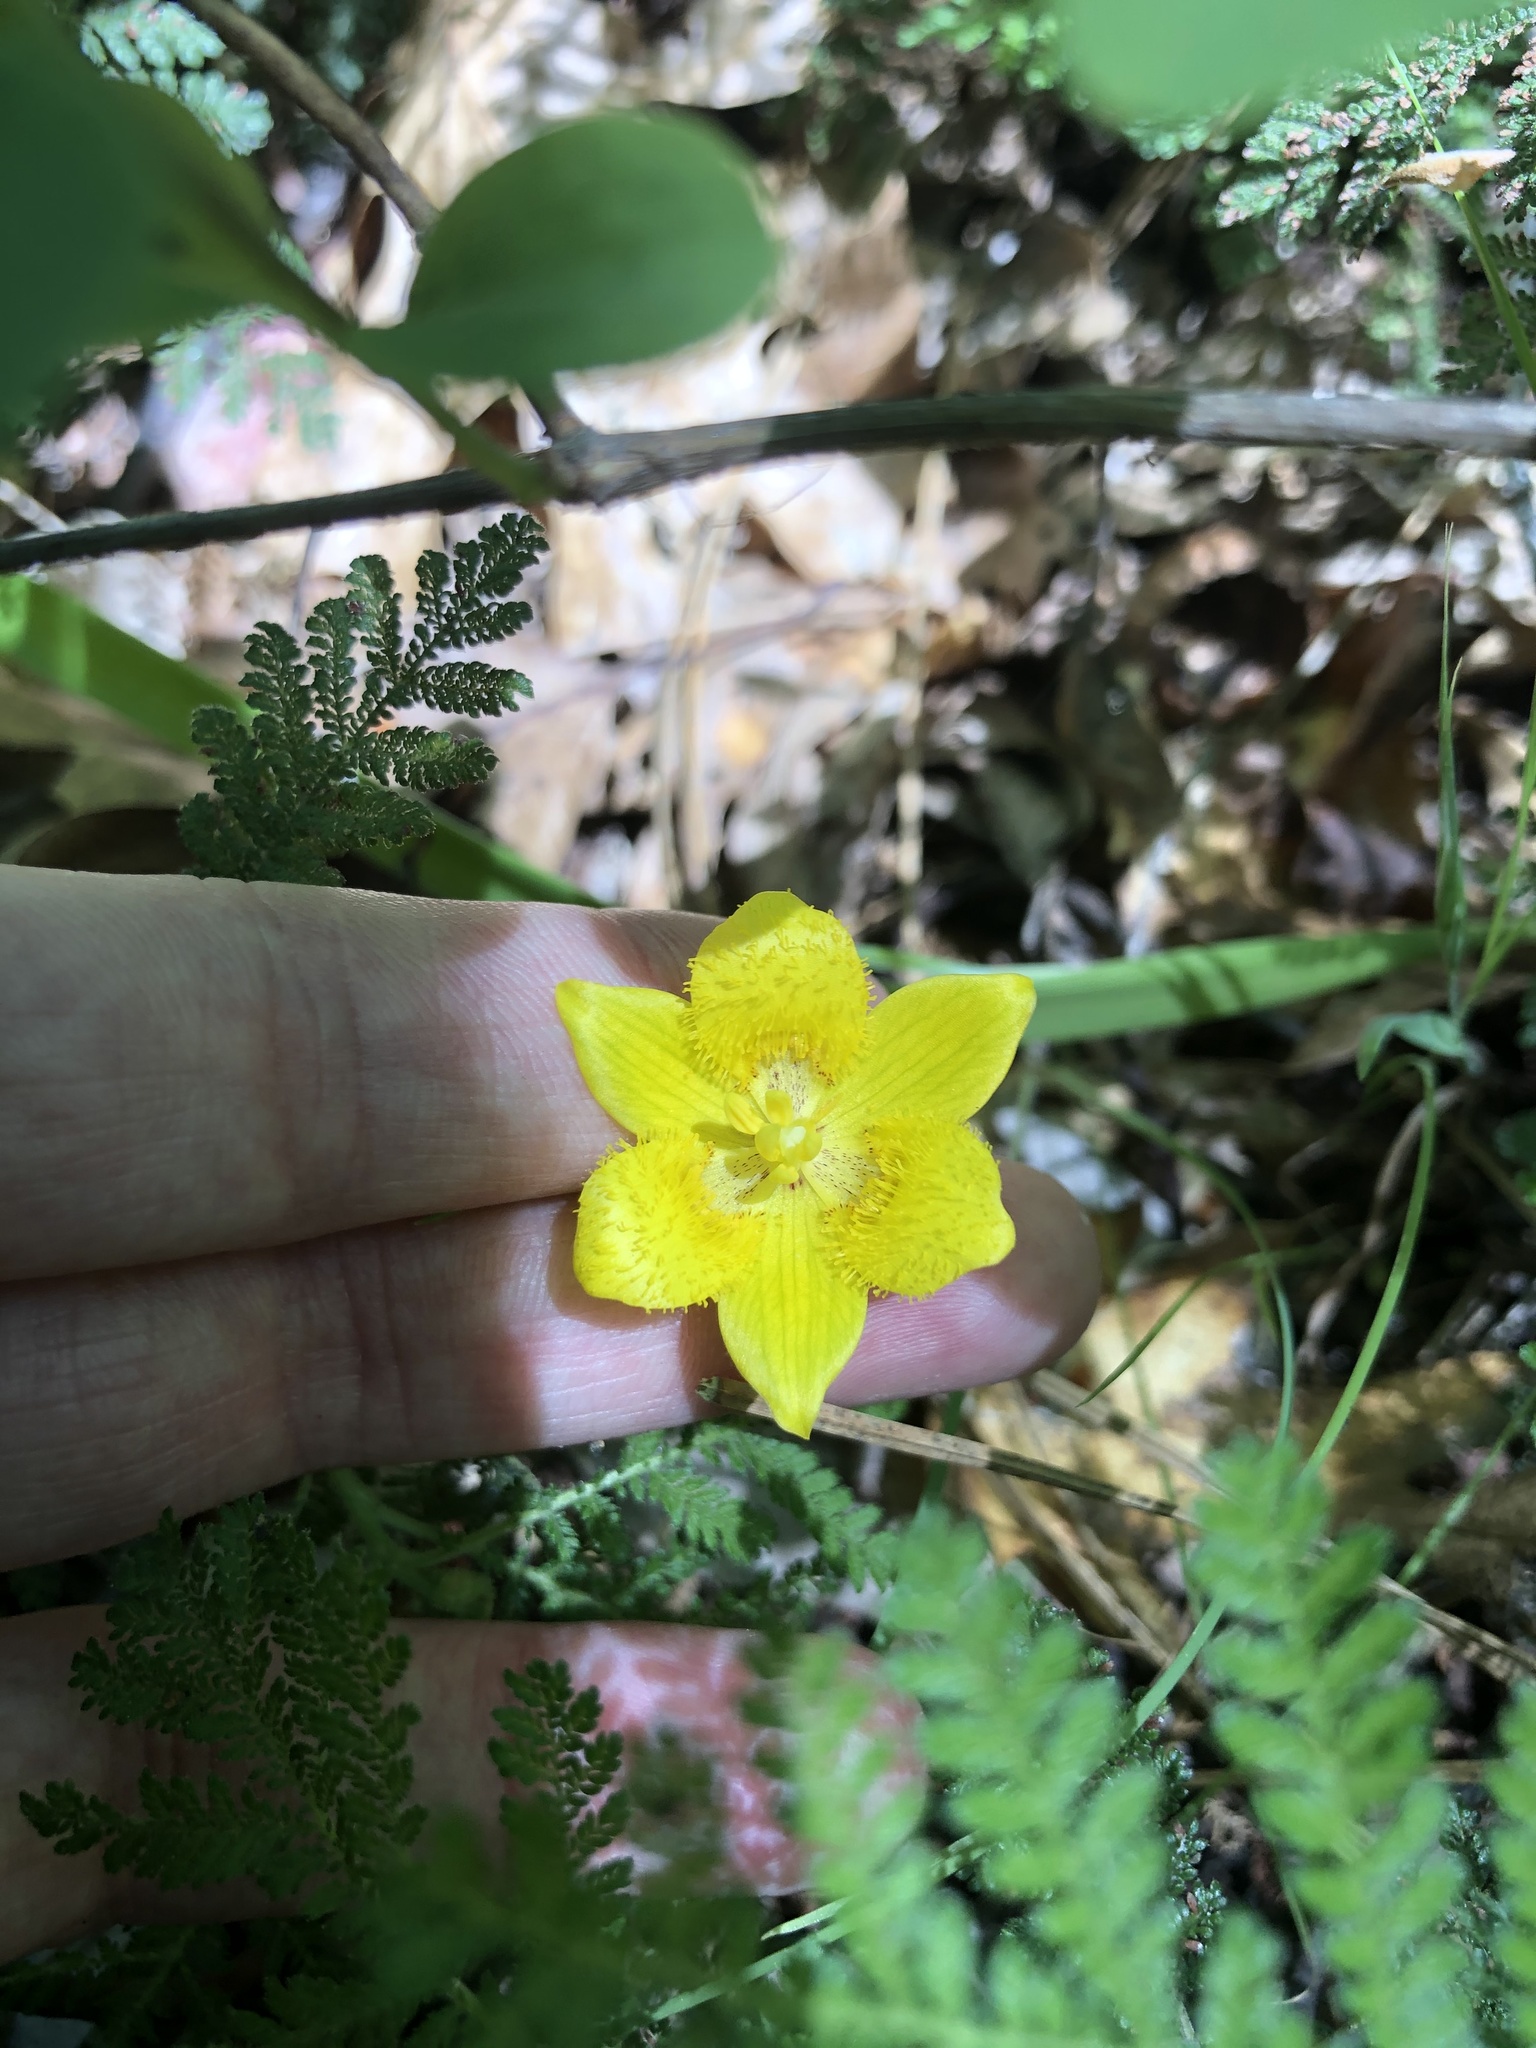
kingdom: Plantae
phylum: Tracheophyta
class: Liliopsida
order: Liliales
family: Liliaceae
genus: Calochortus
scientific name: Calochortus monophyllus
